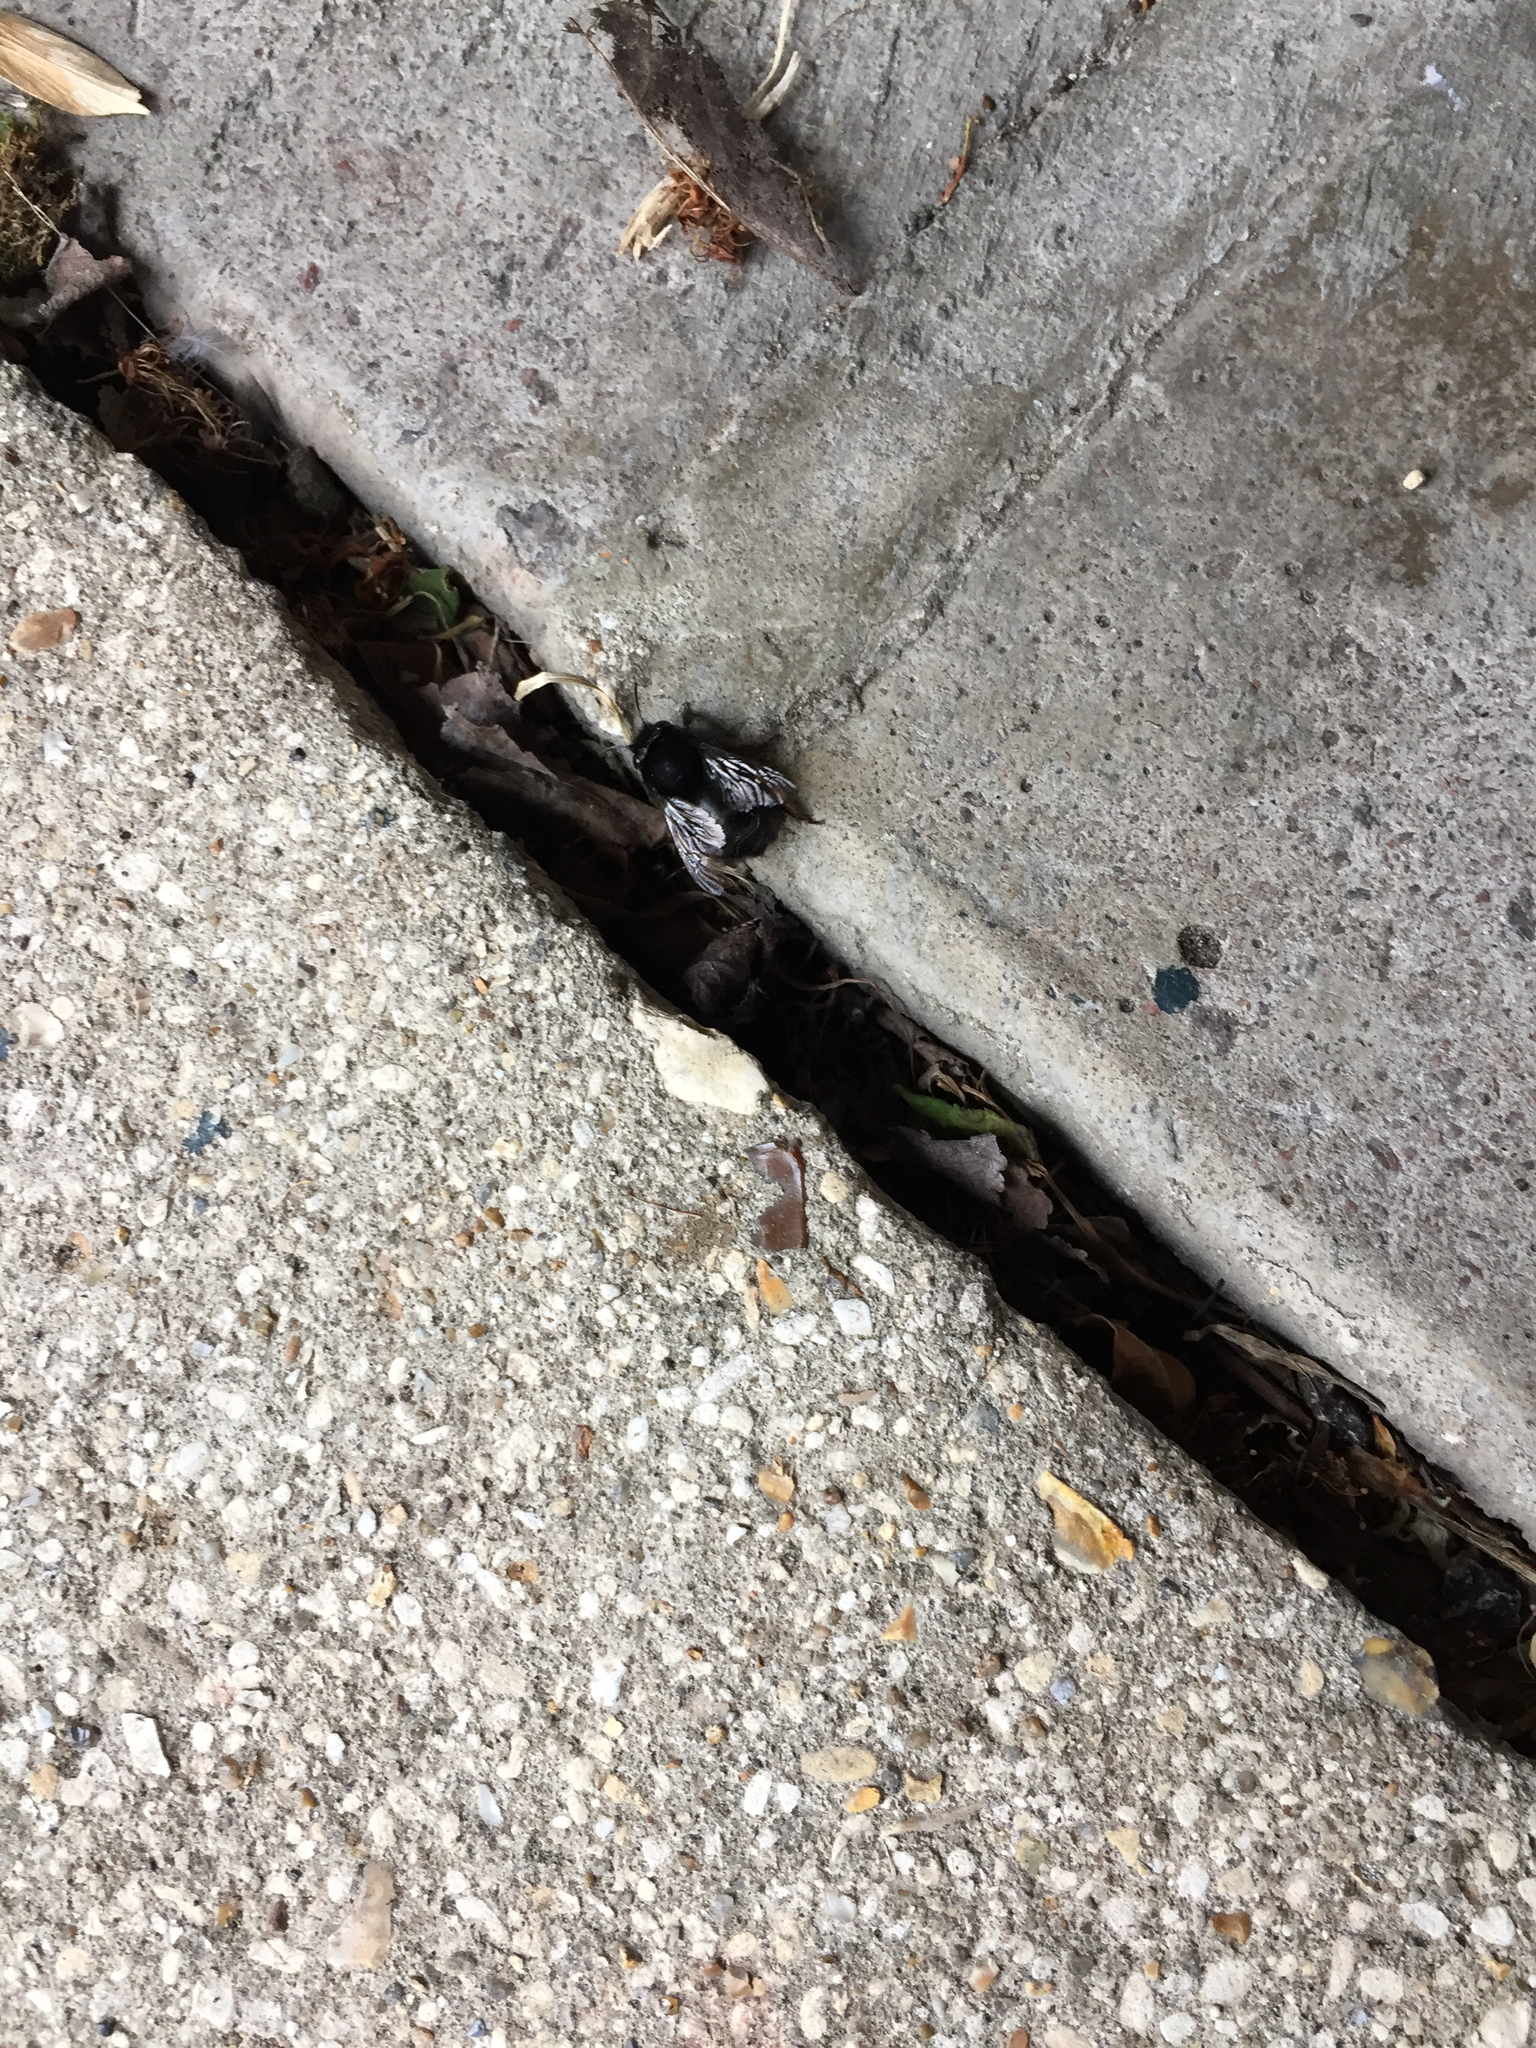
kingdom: Animalia
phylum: Arthropoda
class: Insecta
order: Hymenoptera
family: Apidae
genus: Anthophora
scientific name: Anthophora plumipes
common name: Hairy-footed flower bee
